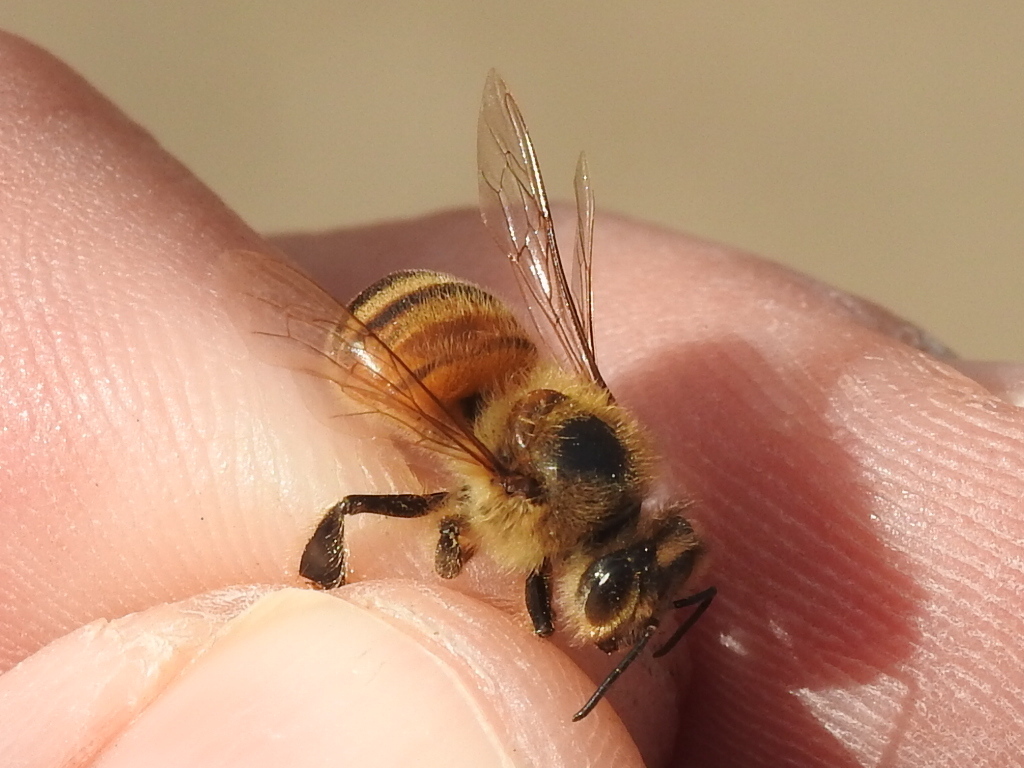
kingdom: Animalia
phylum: Arthropoda
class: Insecta
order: Hymenoptera
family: Apidae
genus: Apis
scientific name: Apis mellifera
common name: Honey bee
